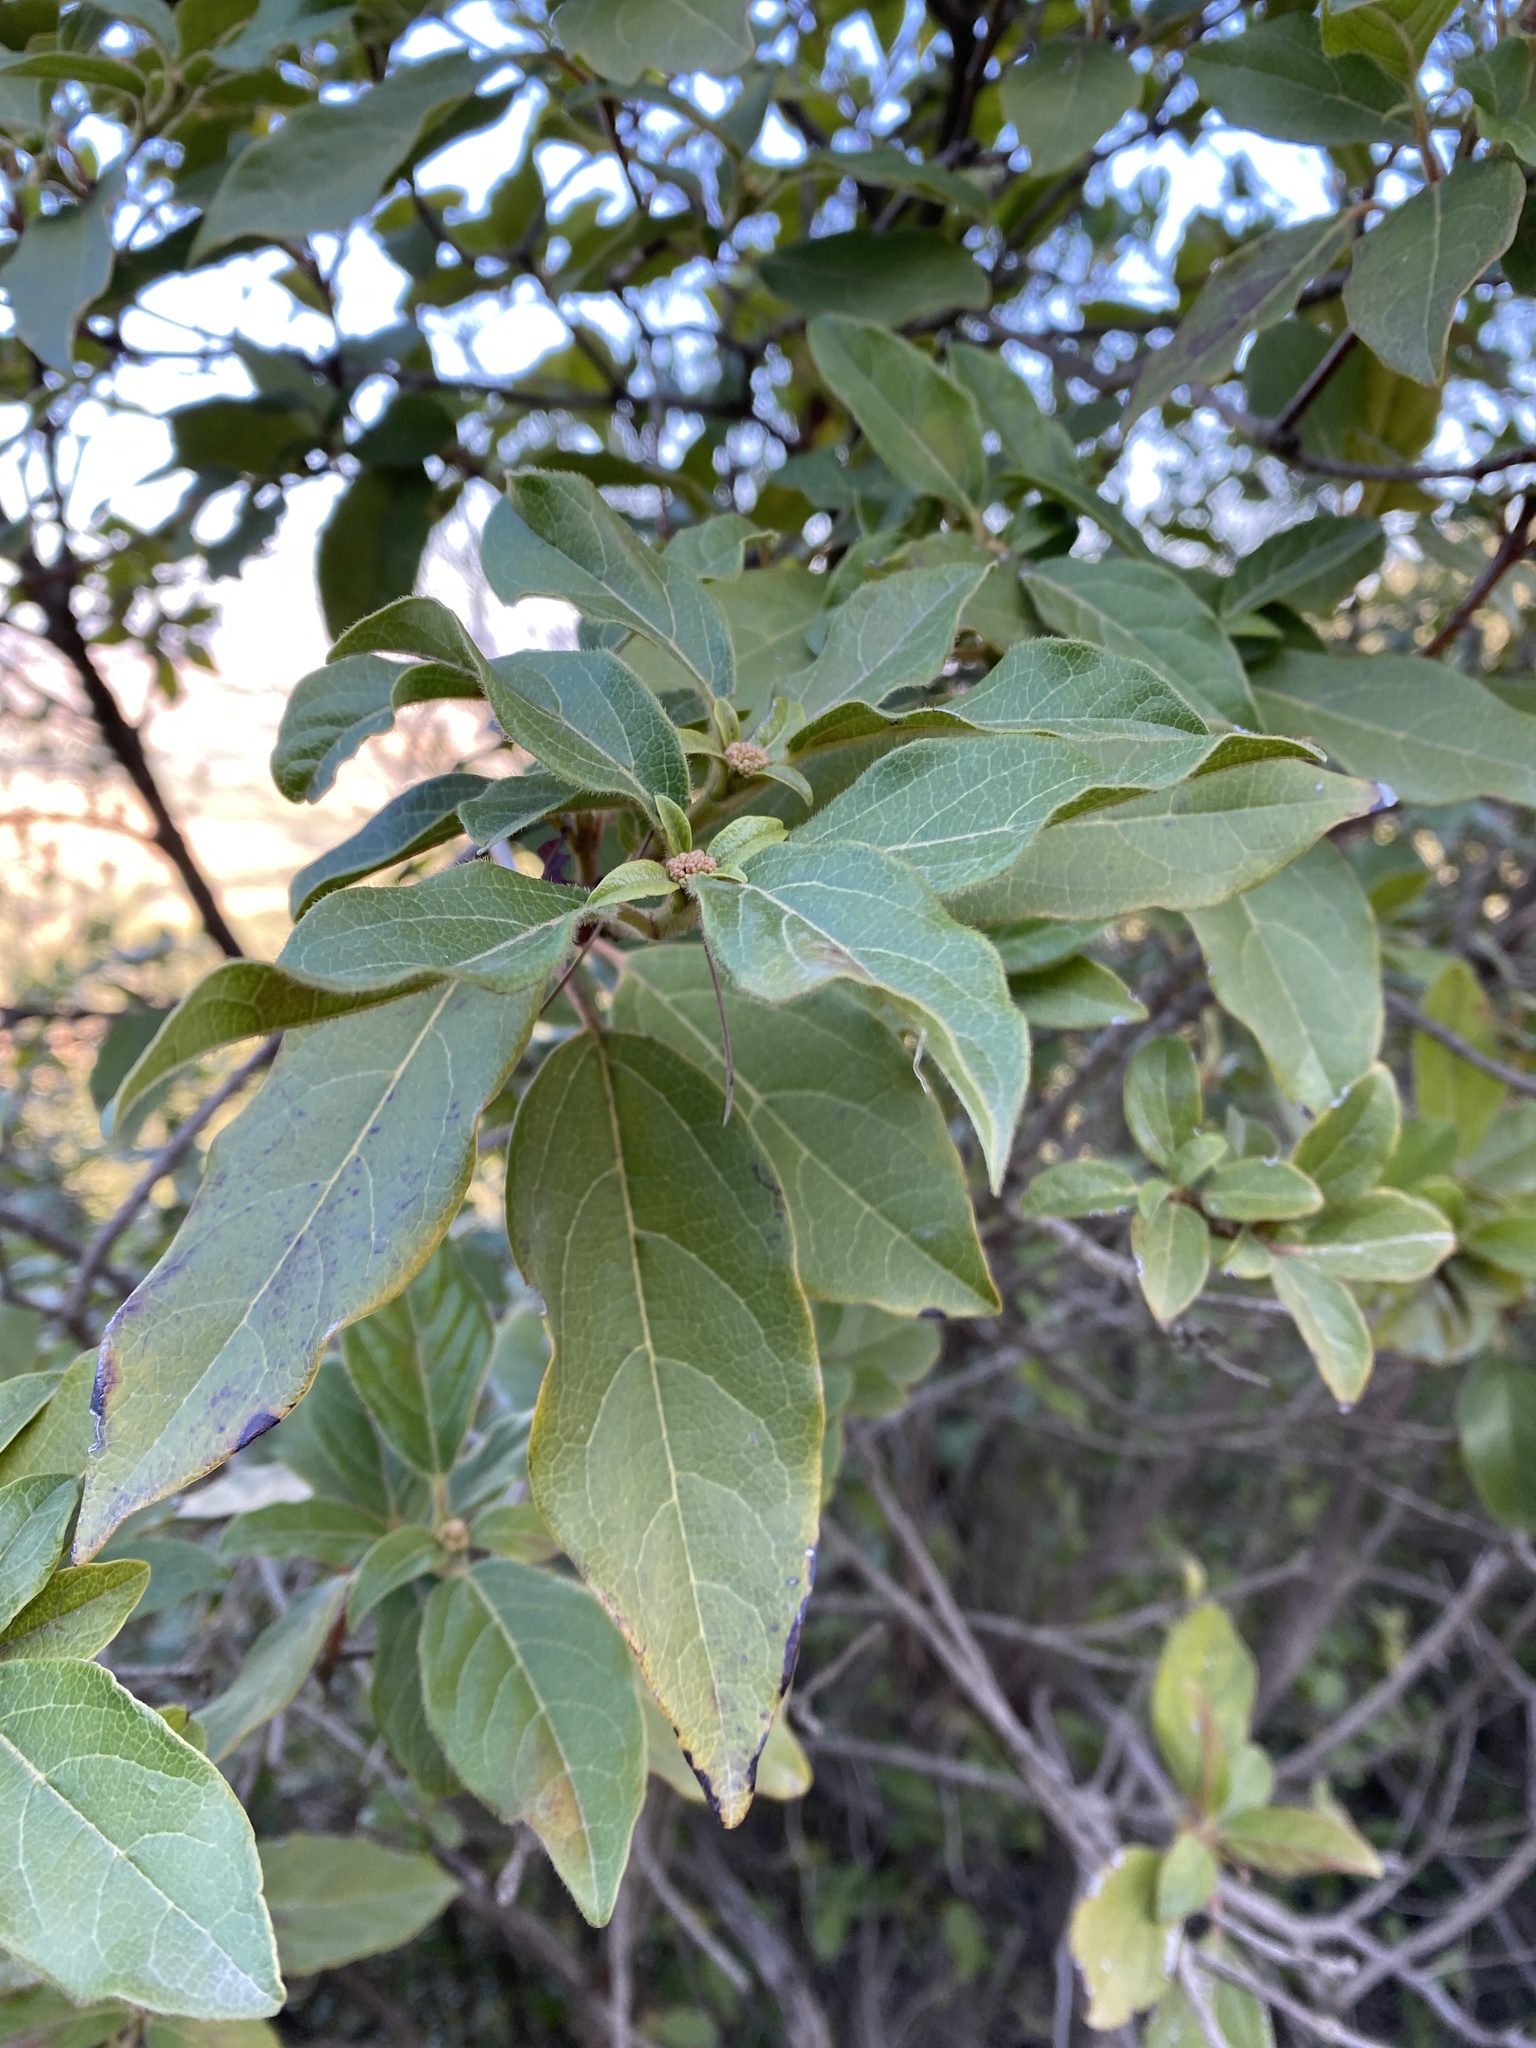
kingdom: Plantae
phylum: Tracheophyta
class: Magnoliopsida
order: Dipsacales
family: Viburnaceae
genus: Viburnum
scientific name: Viburnum tinus
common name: Laurustinus
